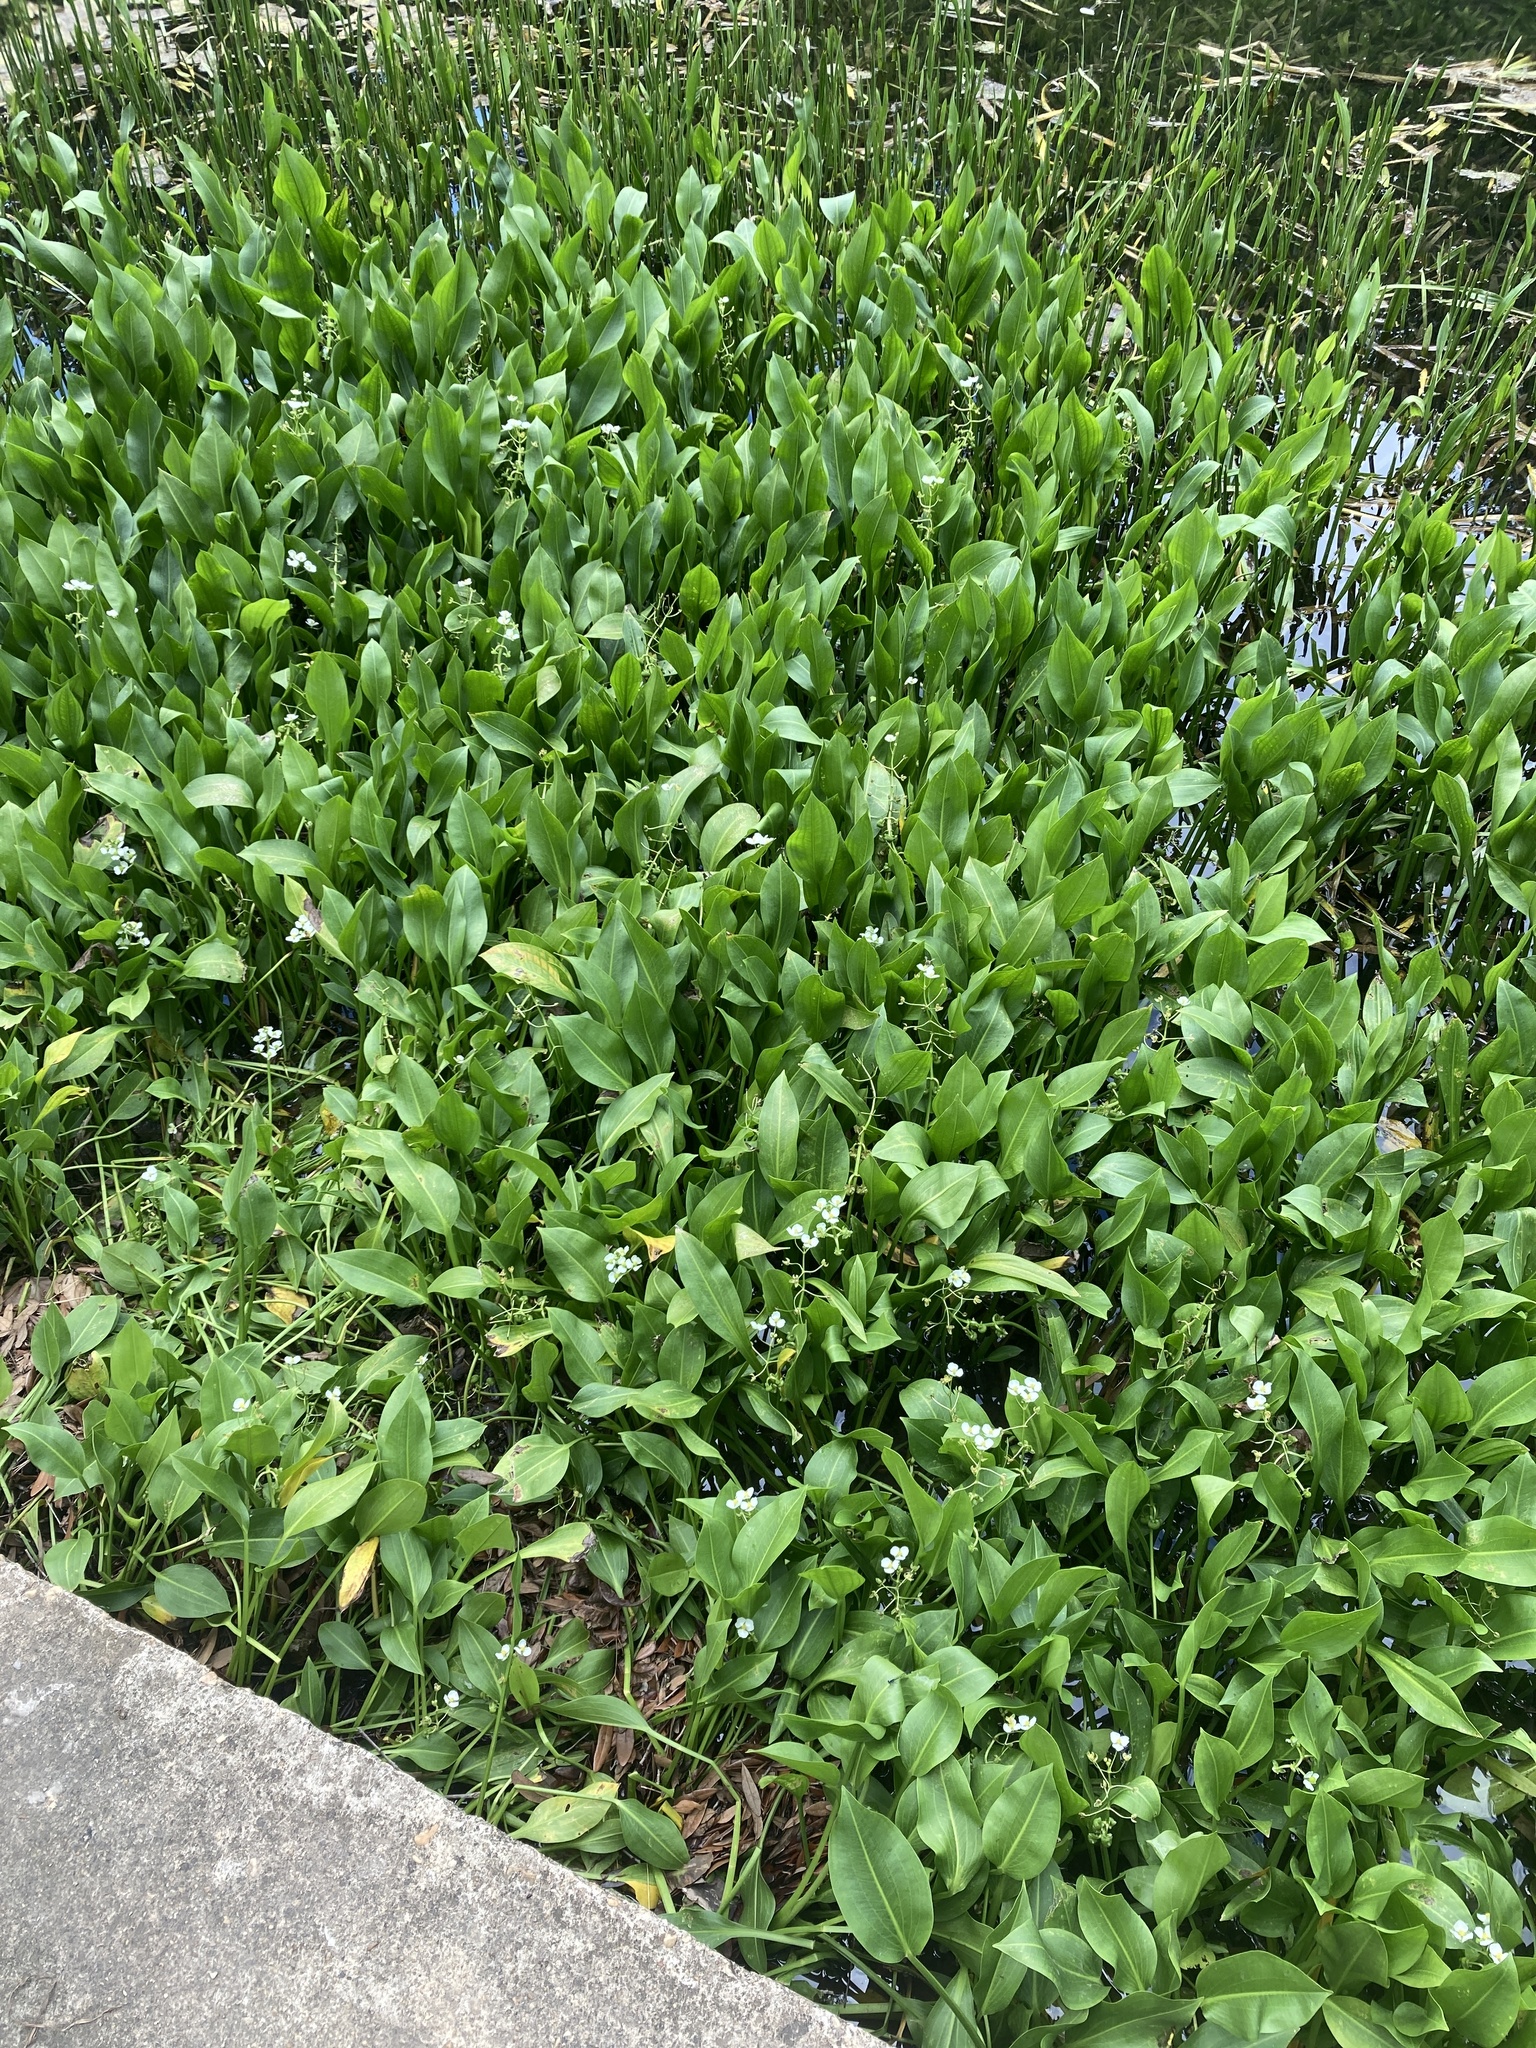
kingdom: Plantae
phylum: Tracheophyta
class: Liliopsida
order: Alismatales
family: Alismataceae
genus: Sagittaria
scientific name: Sagittaria platyphylla
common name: Broad-leaf arrowhead
